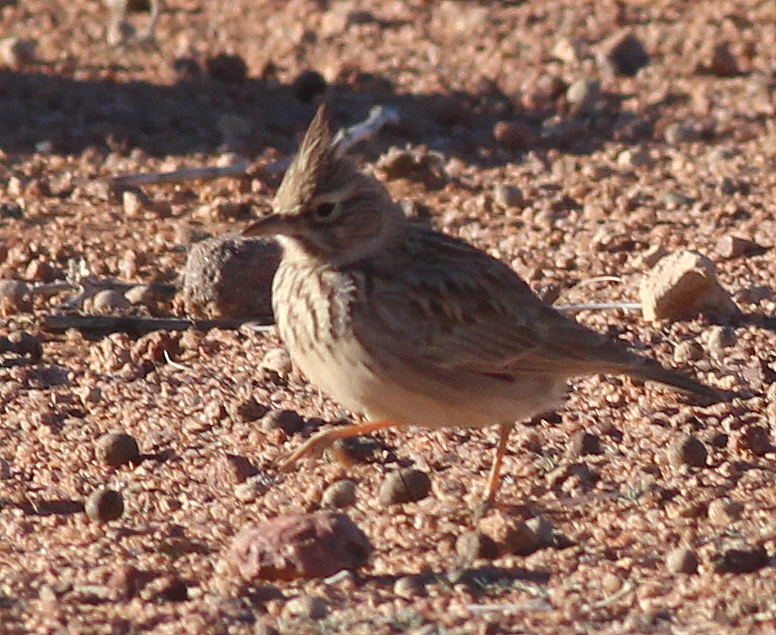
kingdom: Animalia
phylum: Chordata
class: Aves
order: Passeriformes
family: Alaudidae
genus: Galerida
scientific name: Galerida theklae
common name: Thekla lark
